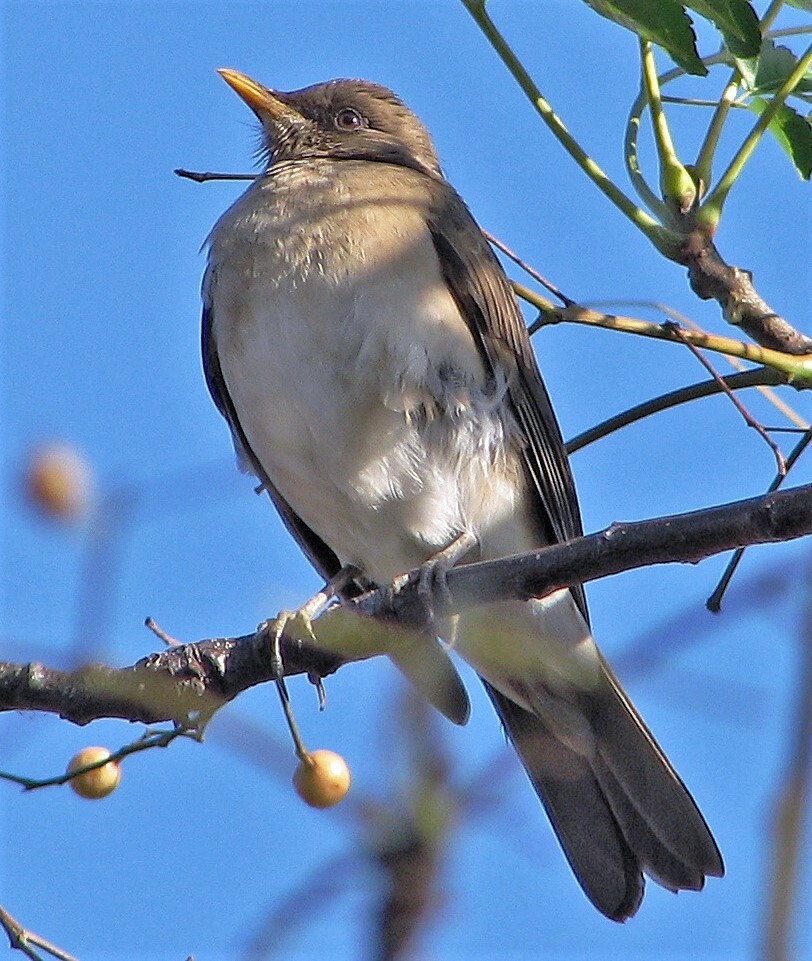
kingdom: Animalia
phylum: Chordata
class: Aves
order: Passeriformes
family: Turdidae
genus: Turdus
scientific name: Turdus amaurochalinus
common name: Creamy-bellied thrush
